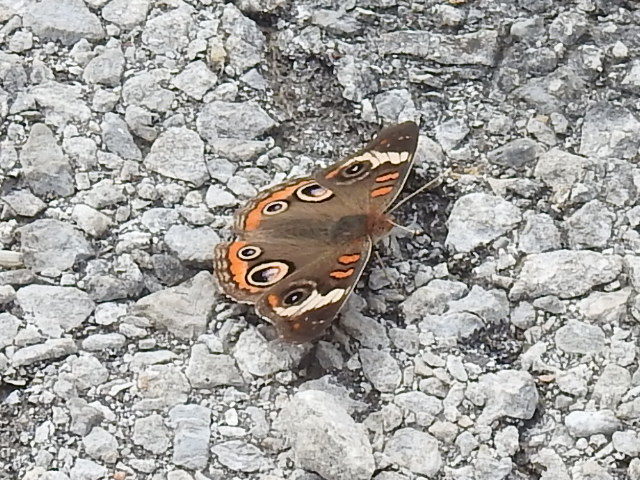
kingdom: Animalia
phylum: Arthropoda
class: Insecta
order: Lepidoptera
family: Nymphalidae
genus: Junonia
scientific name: Junonia coenia
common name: Common buckeye
